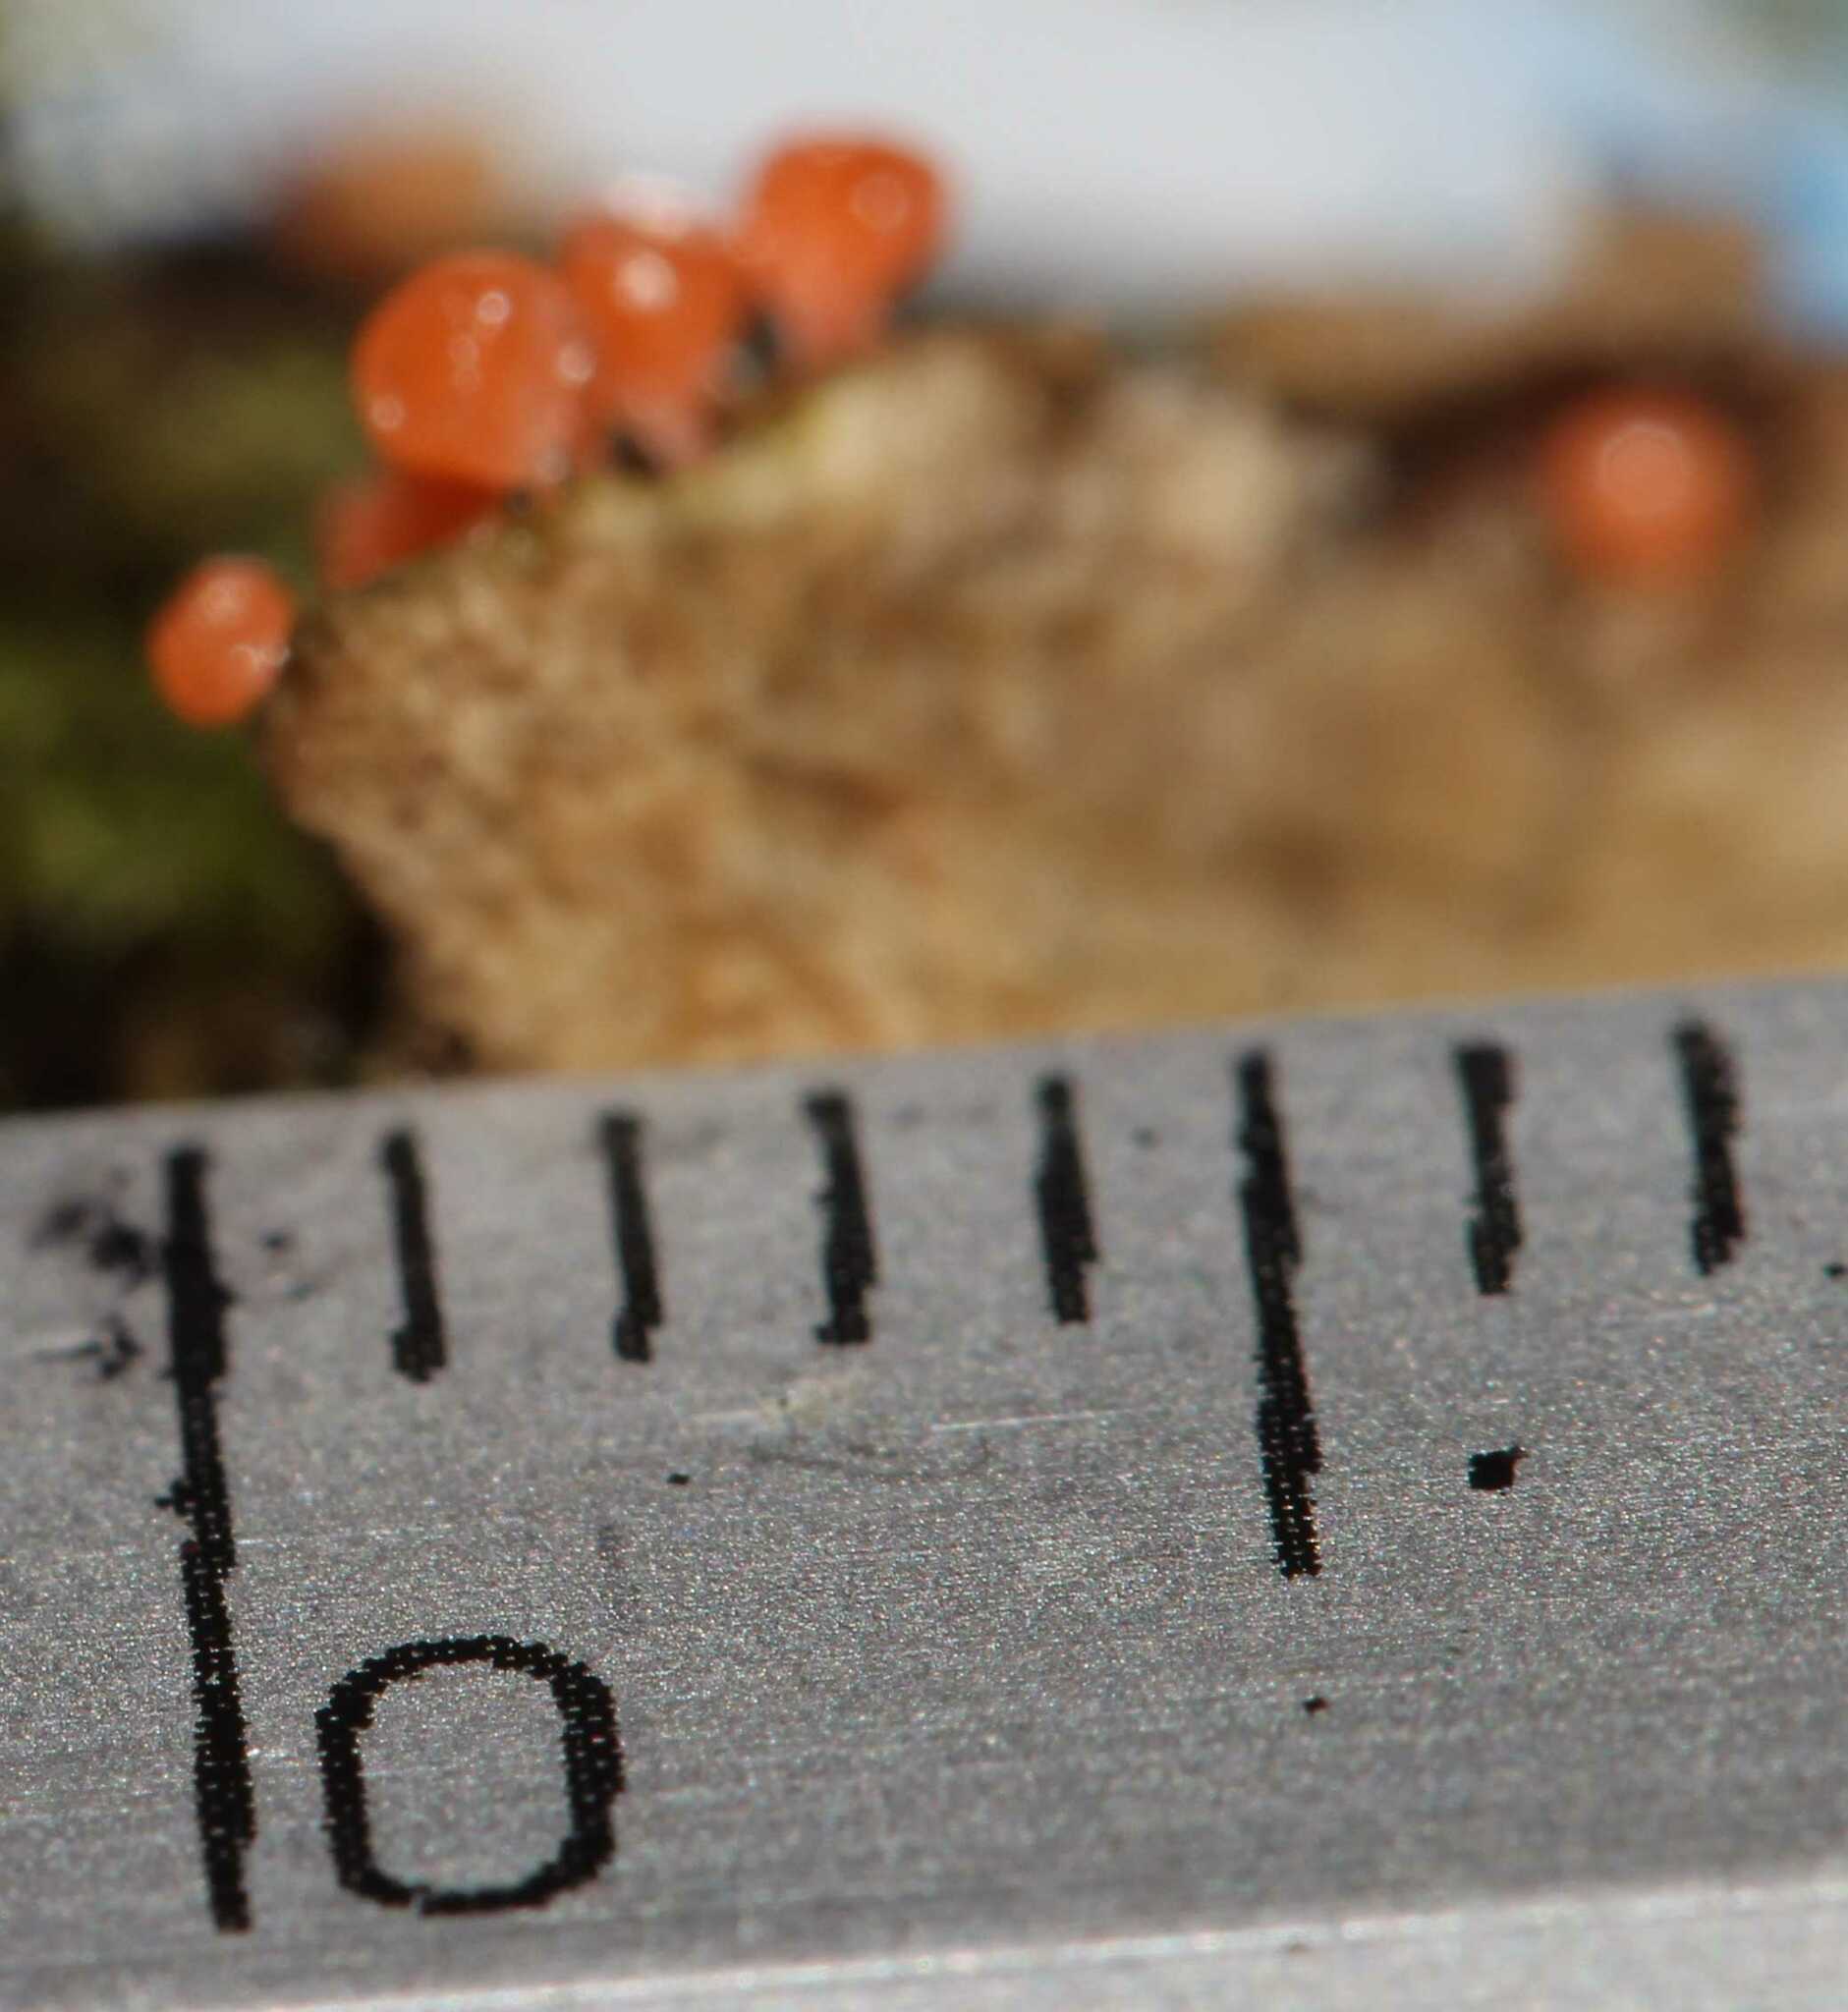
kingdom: Protozoa
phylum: Mycetozoa
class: Myxomycetes
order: Trichiales
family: Arcyriaceae
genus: Hemitrichia
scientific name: Hemitrichia
